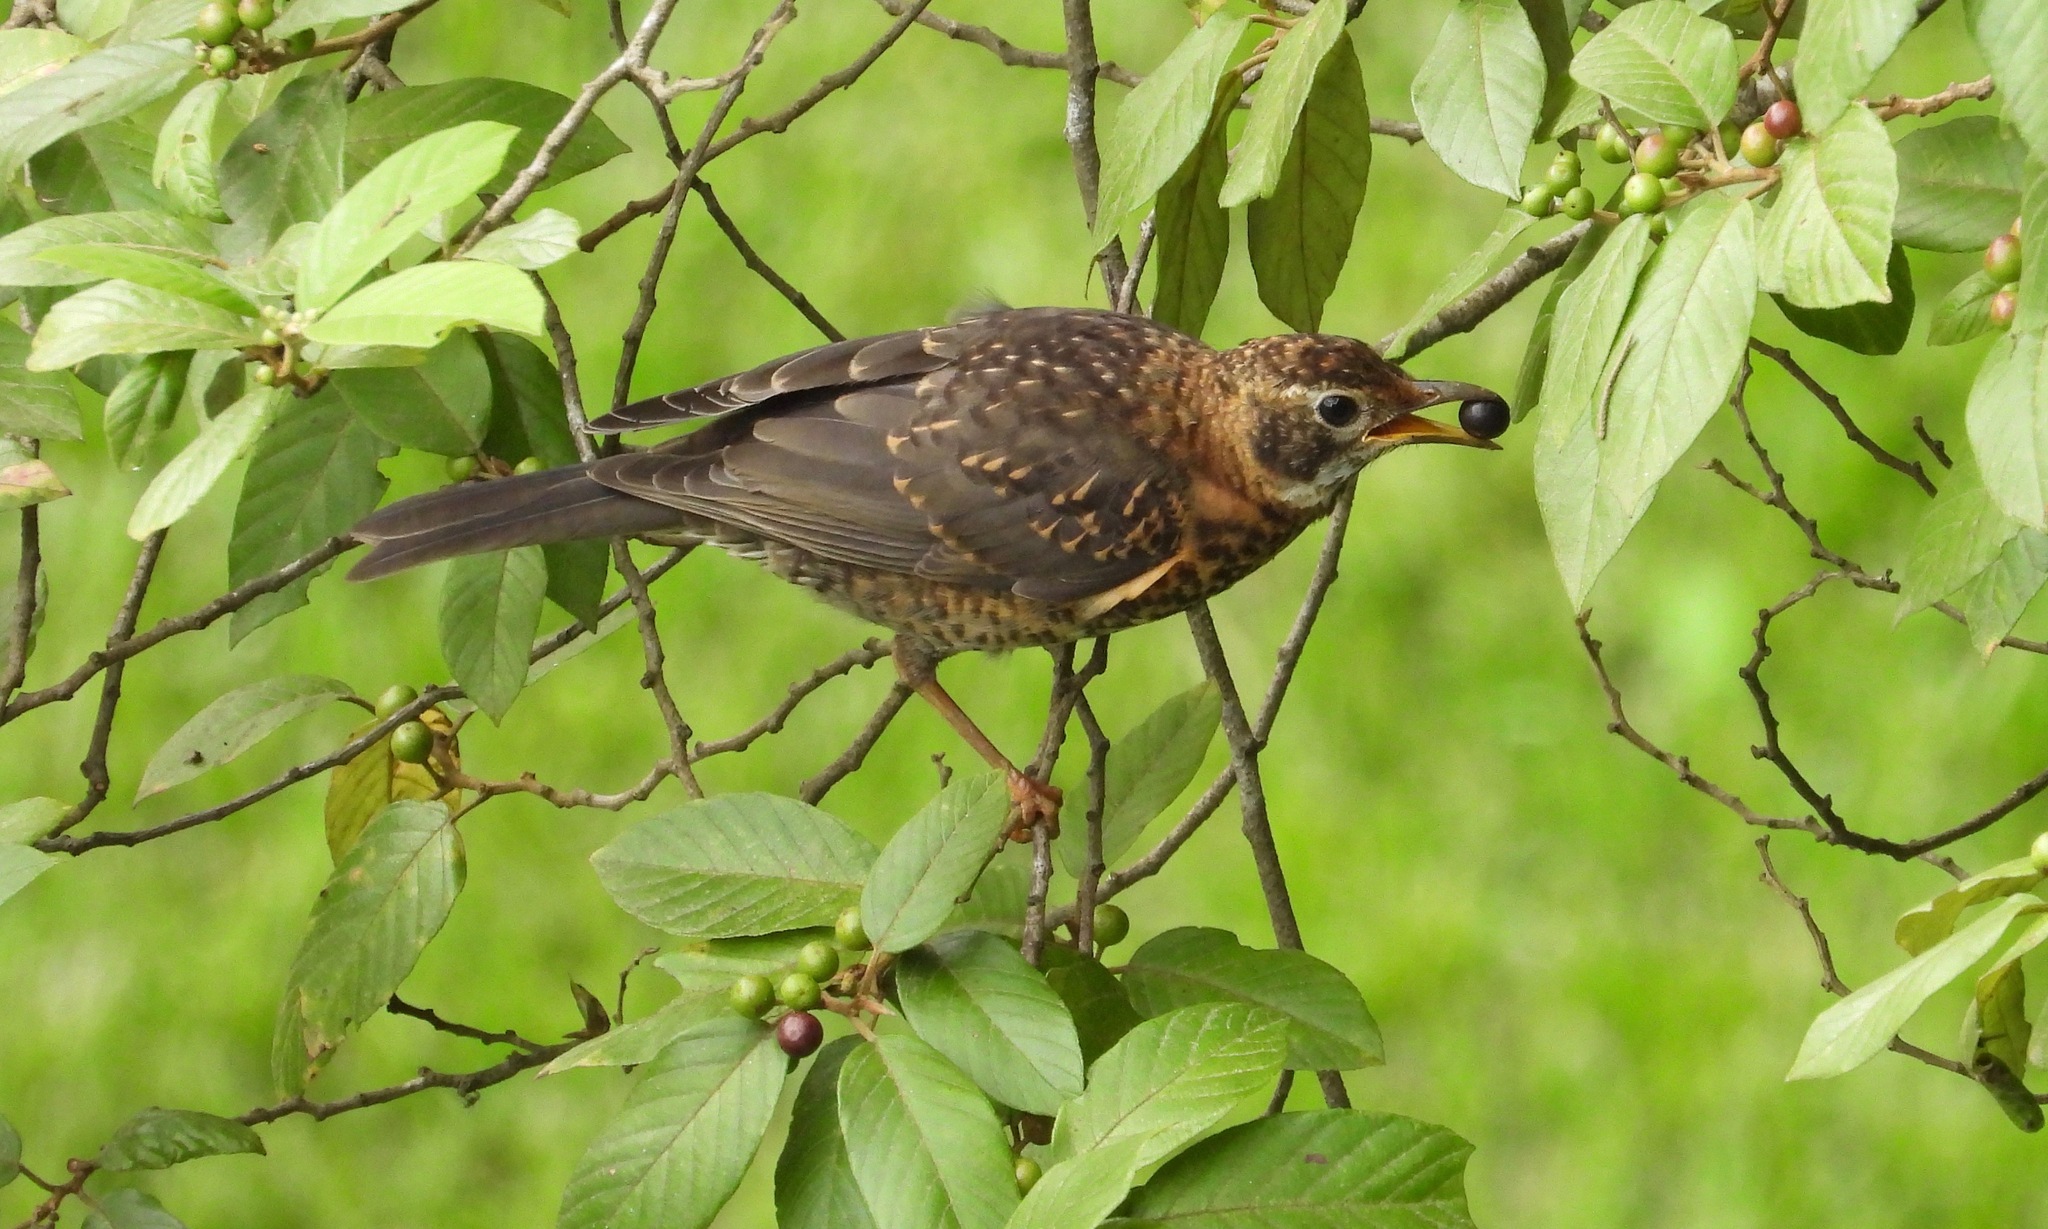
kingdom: Animalia
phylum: Chordata
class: Aves
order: Passeriformes
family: Turdidae
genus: Turdus
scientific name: Turdus rufitorques
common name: Rufous-collared thrush
